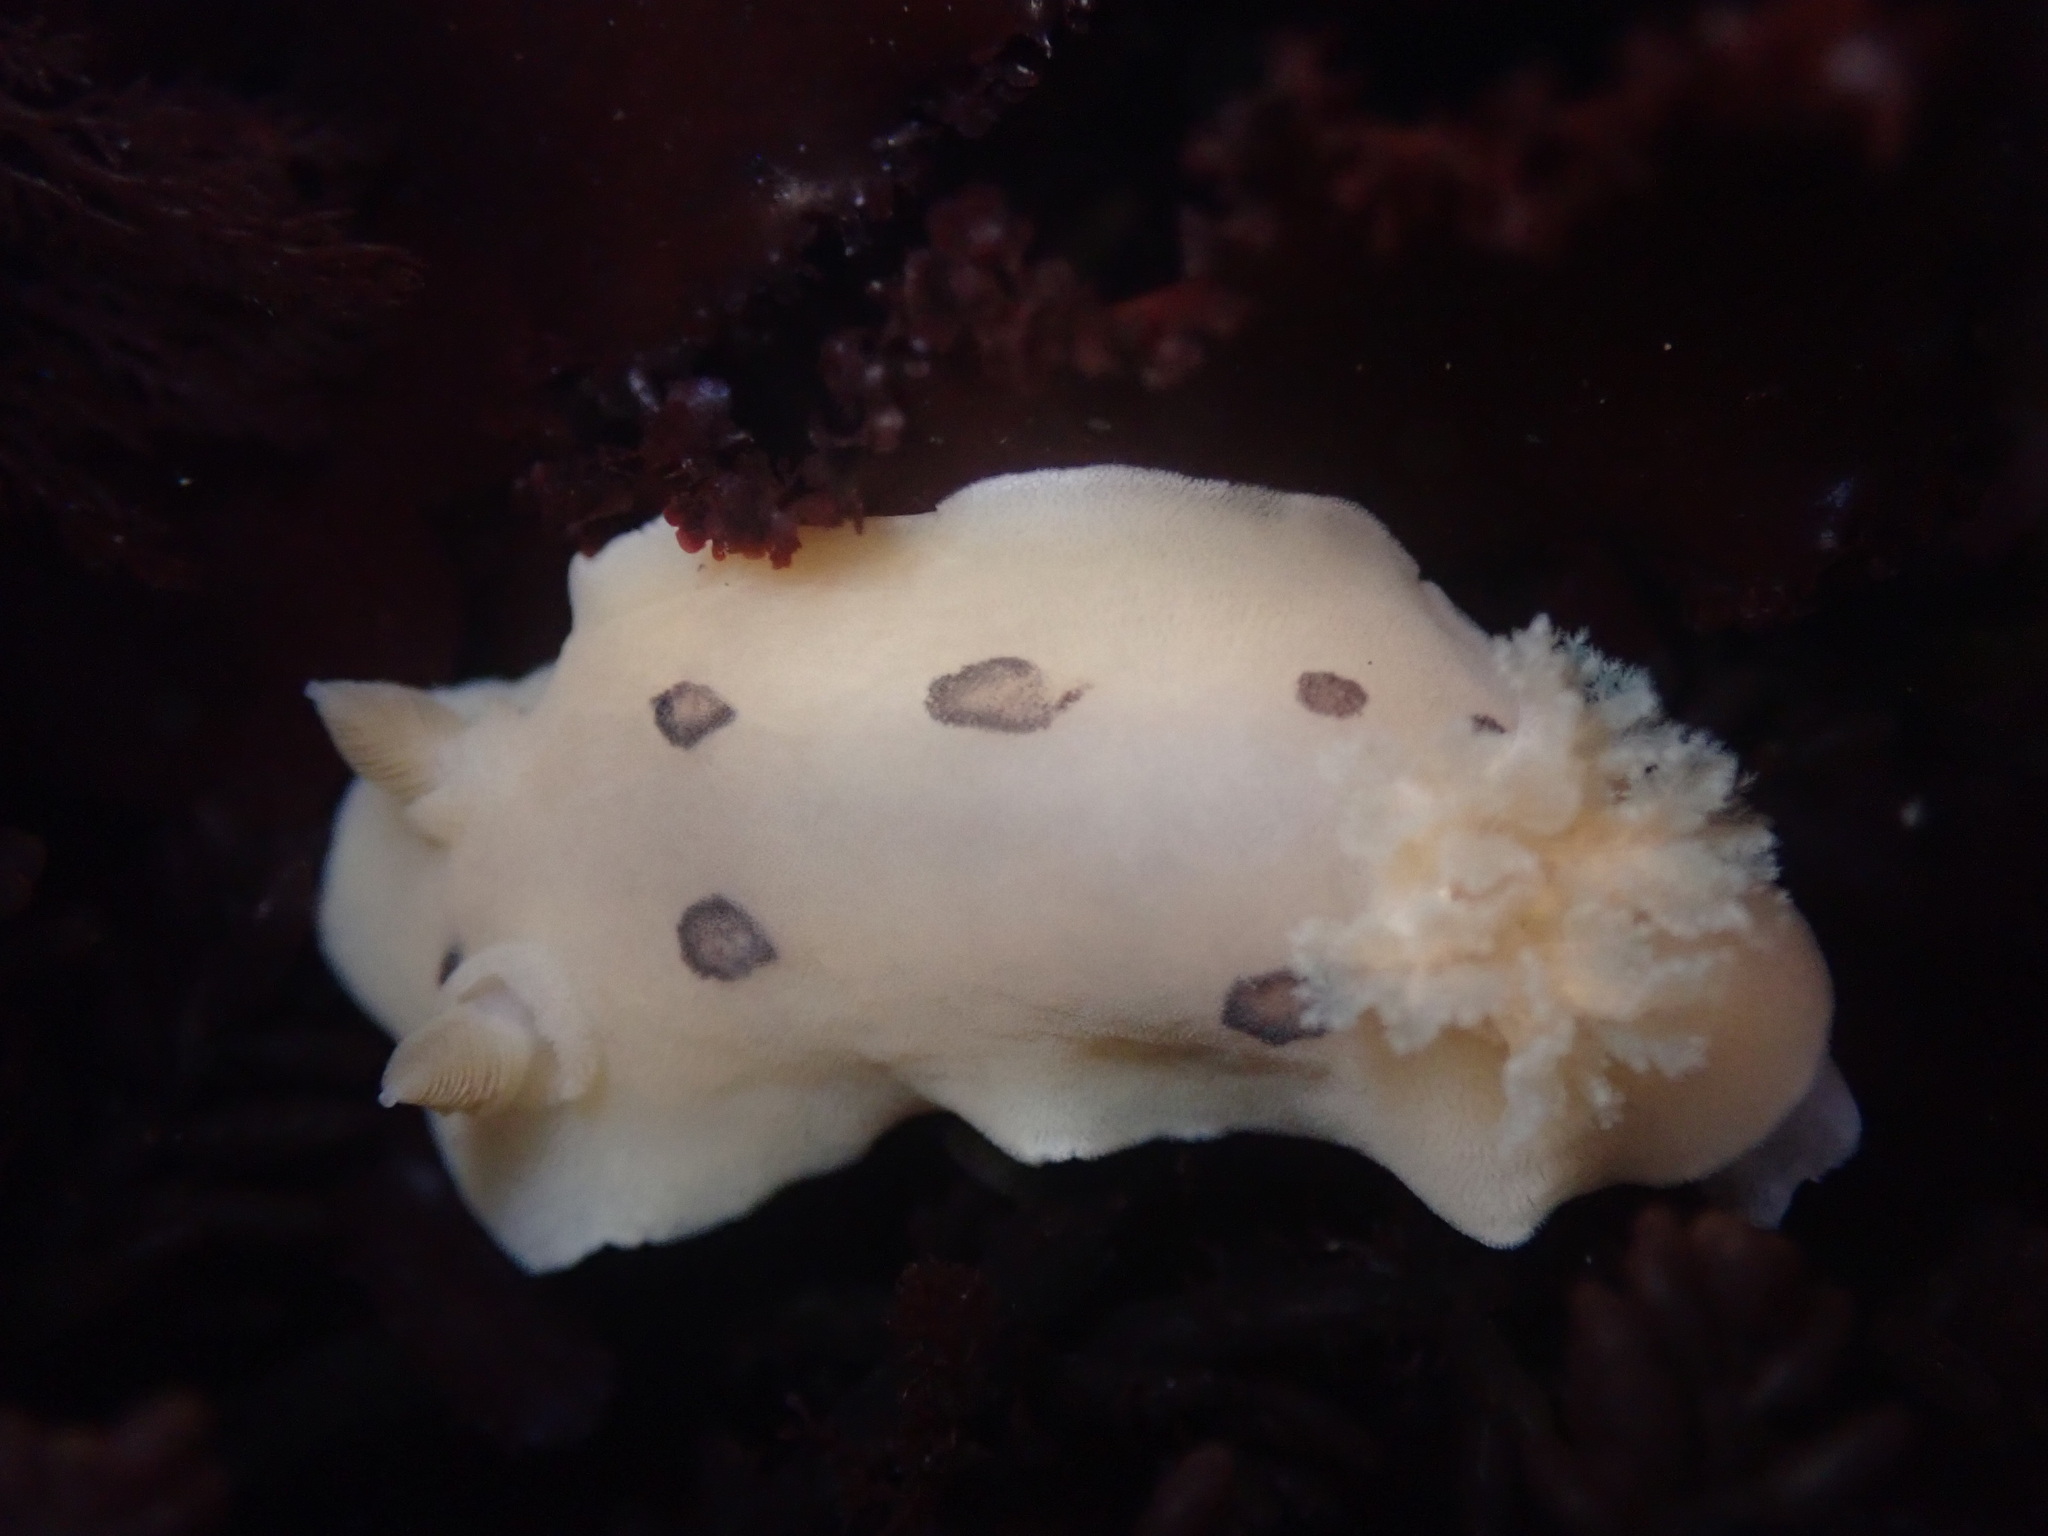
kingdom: Animalia
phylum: Mollusca
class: Gastropoda
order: Nudibranchia
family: Discodorididae
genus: Diaulula
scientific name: Diaulula sandiegensis
